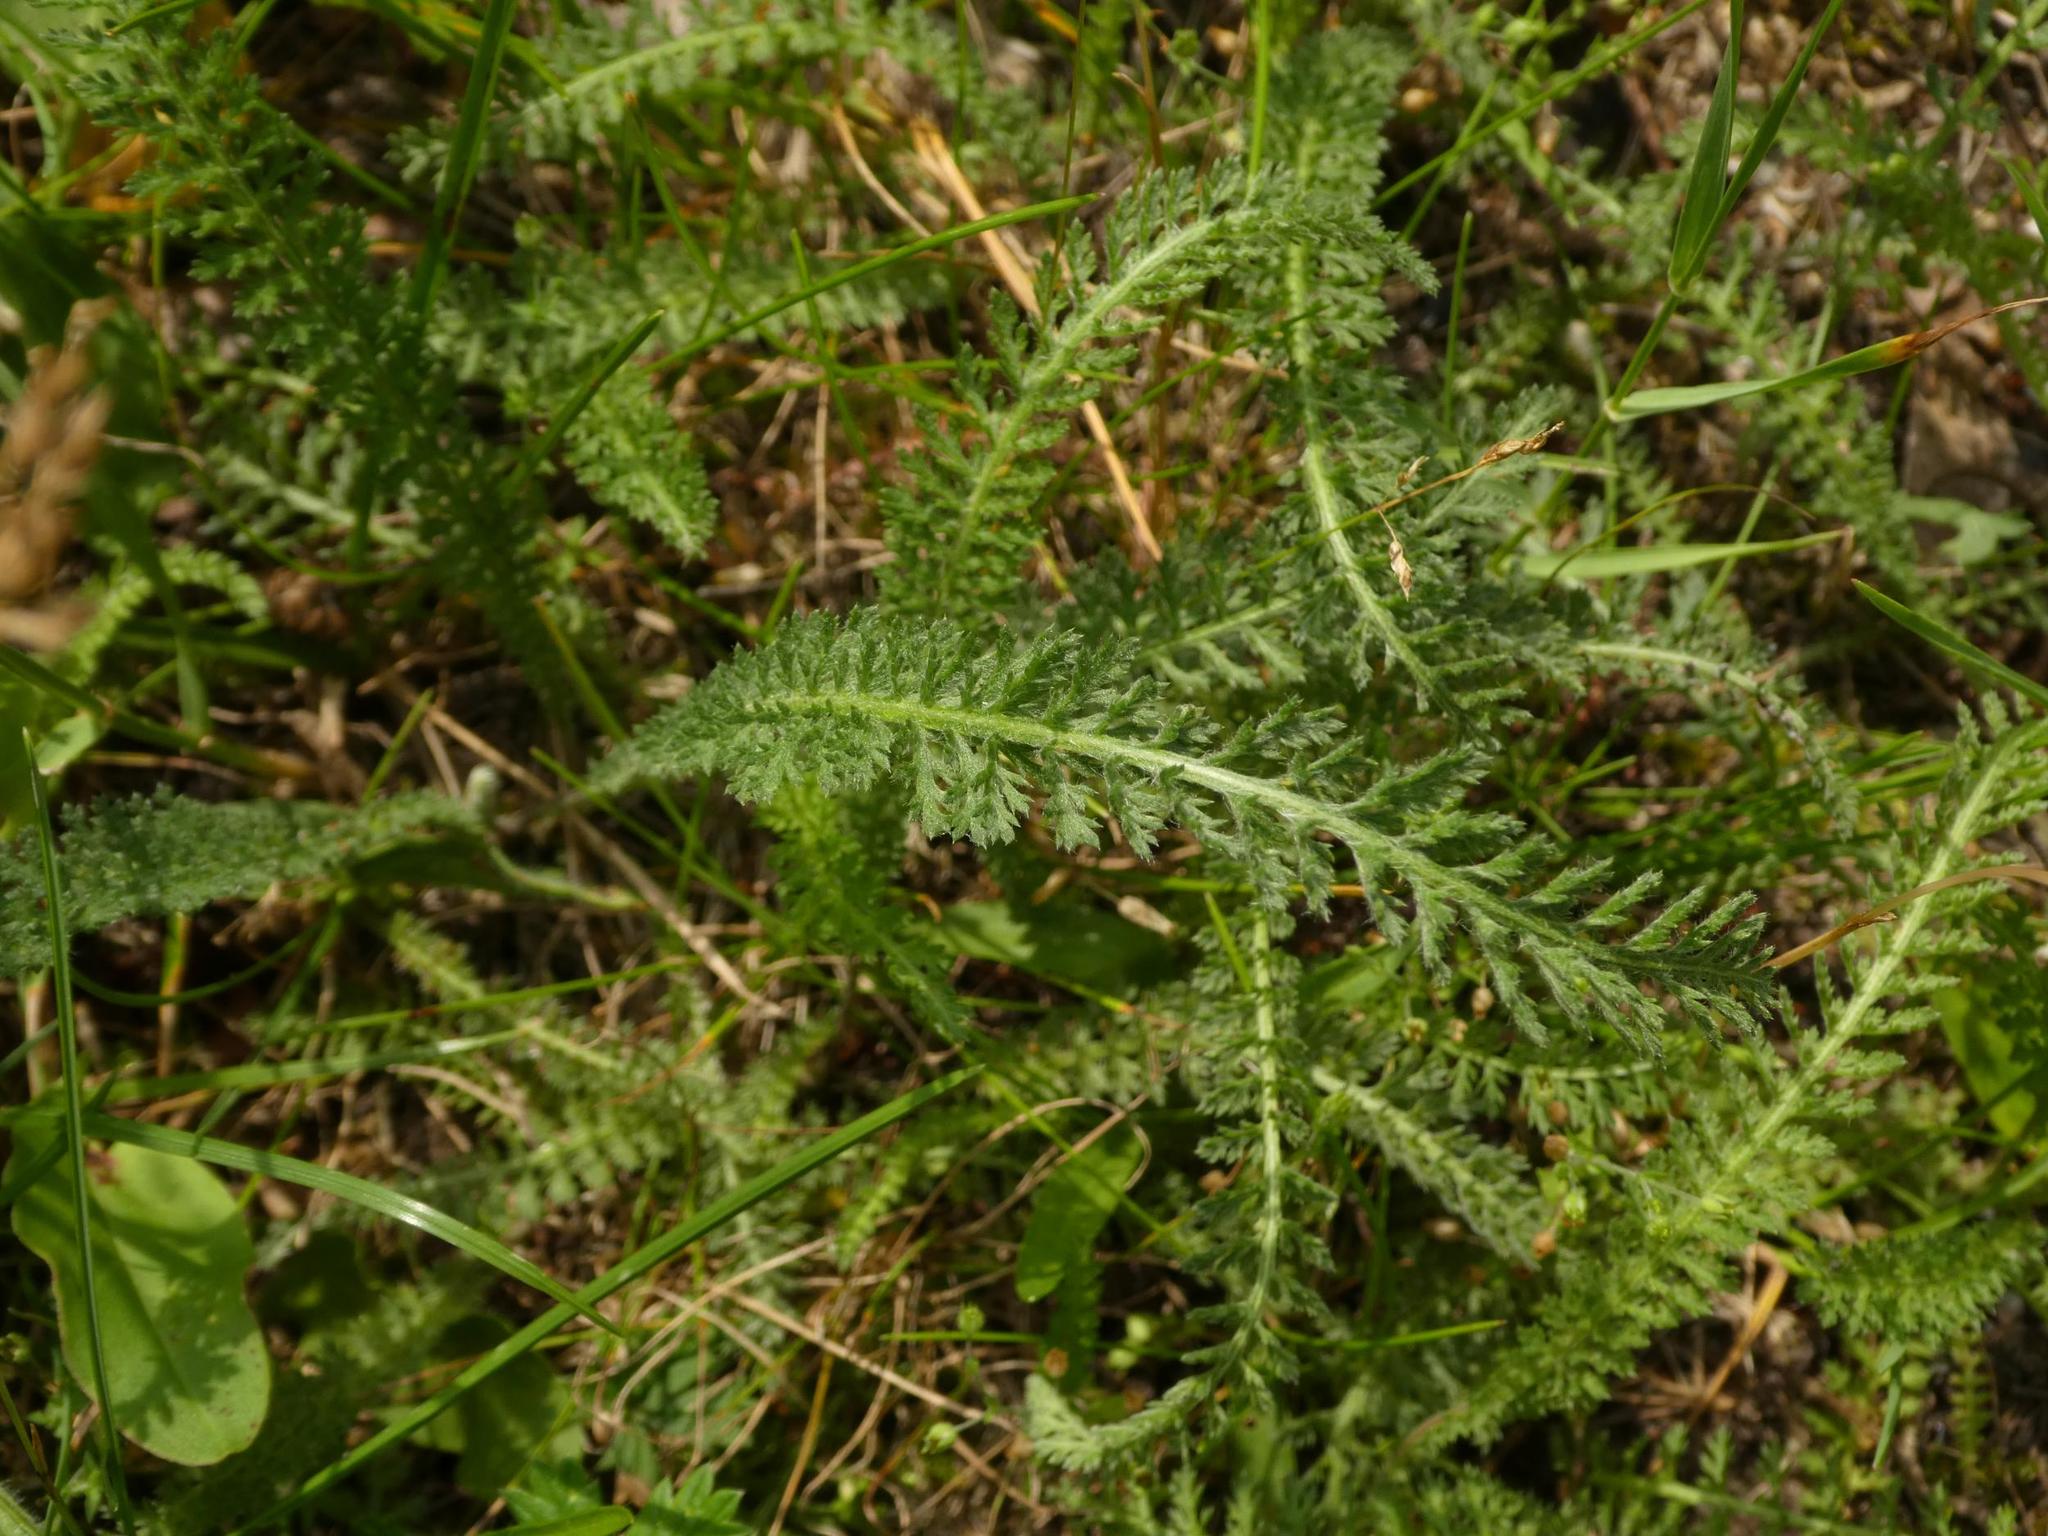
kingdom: Plantae
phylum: Tracheophyta
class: Magnoliopsida
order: Asterales
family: Asteraceae
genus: Achillea
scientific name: Achillea millefolium
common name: Yarrow
